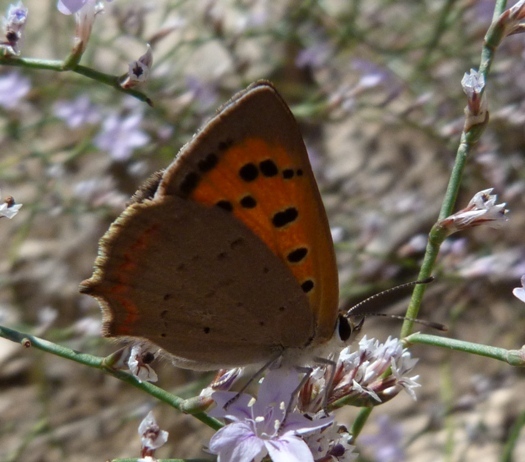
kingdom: Animalia
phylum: Arthropoda
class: Insecta
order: Lepidoptera
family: Lycaenidae
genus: Lycaena
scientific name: Lycaena phlaeas
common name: Small copper
